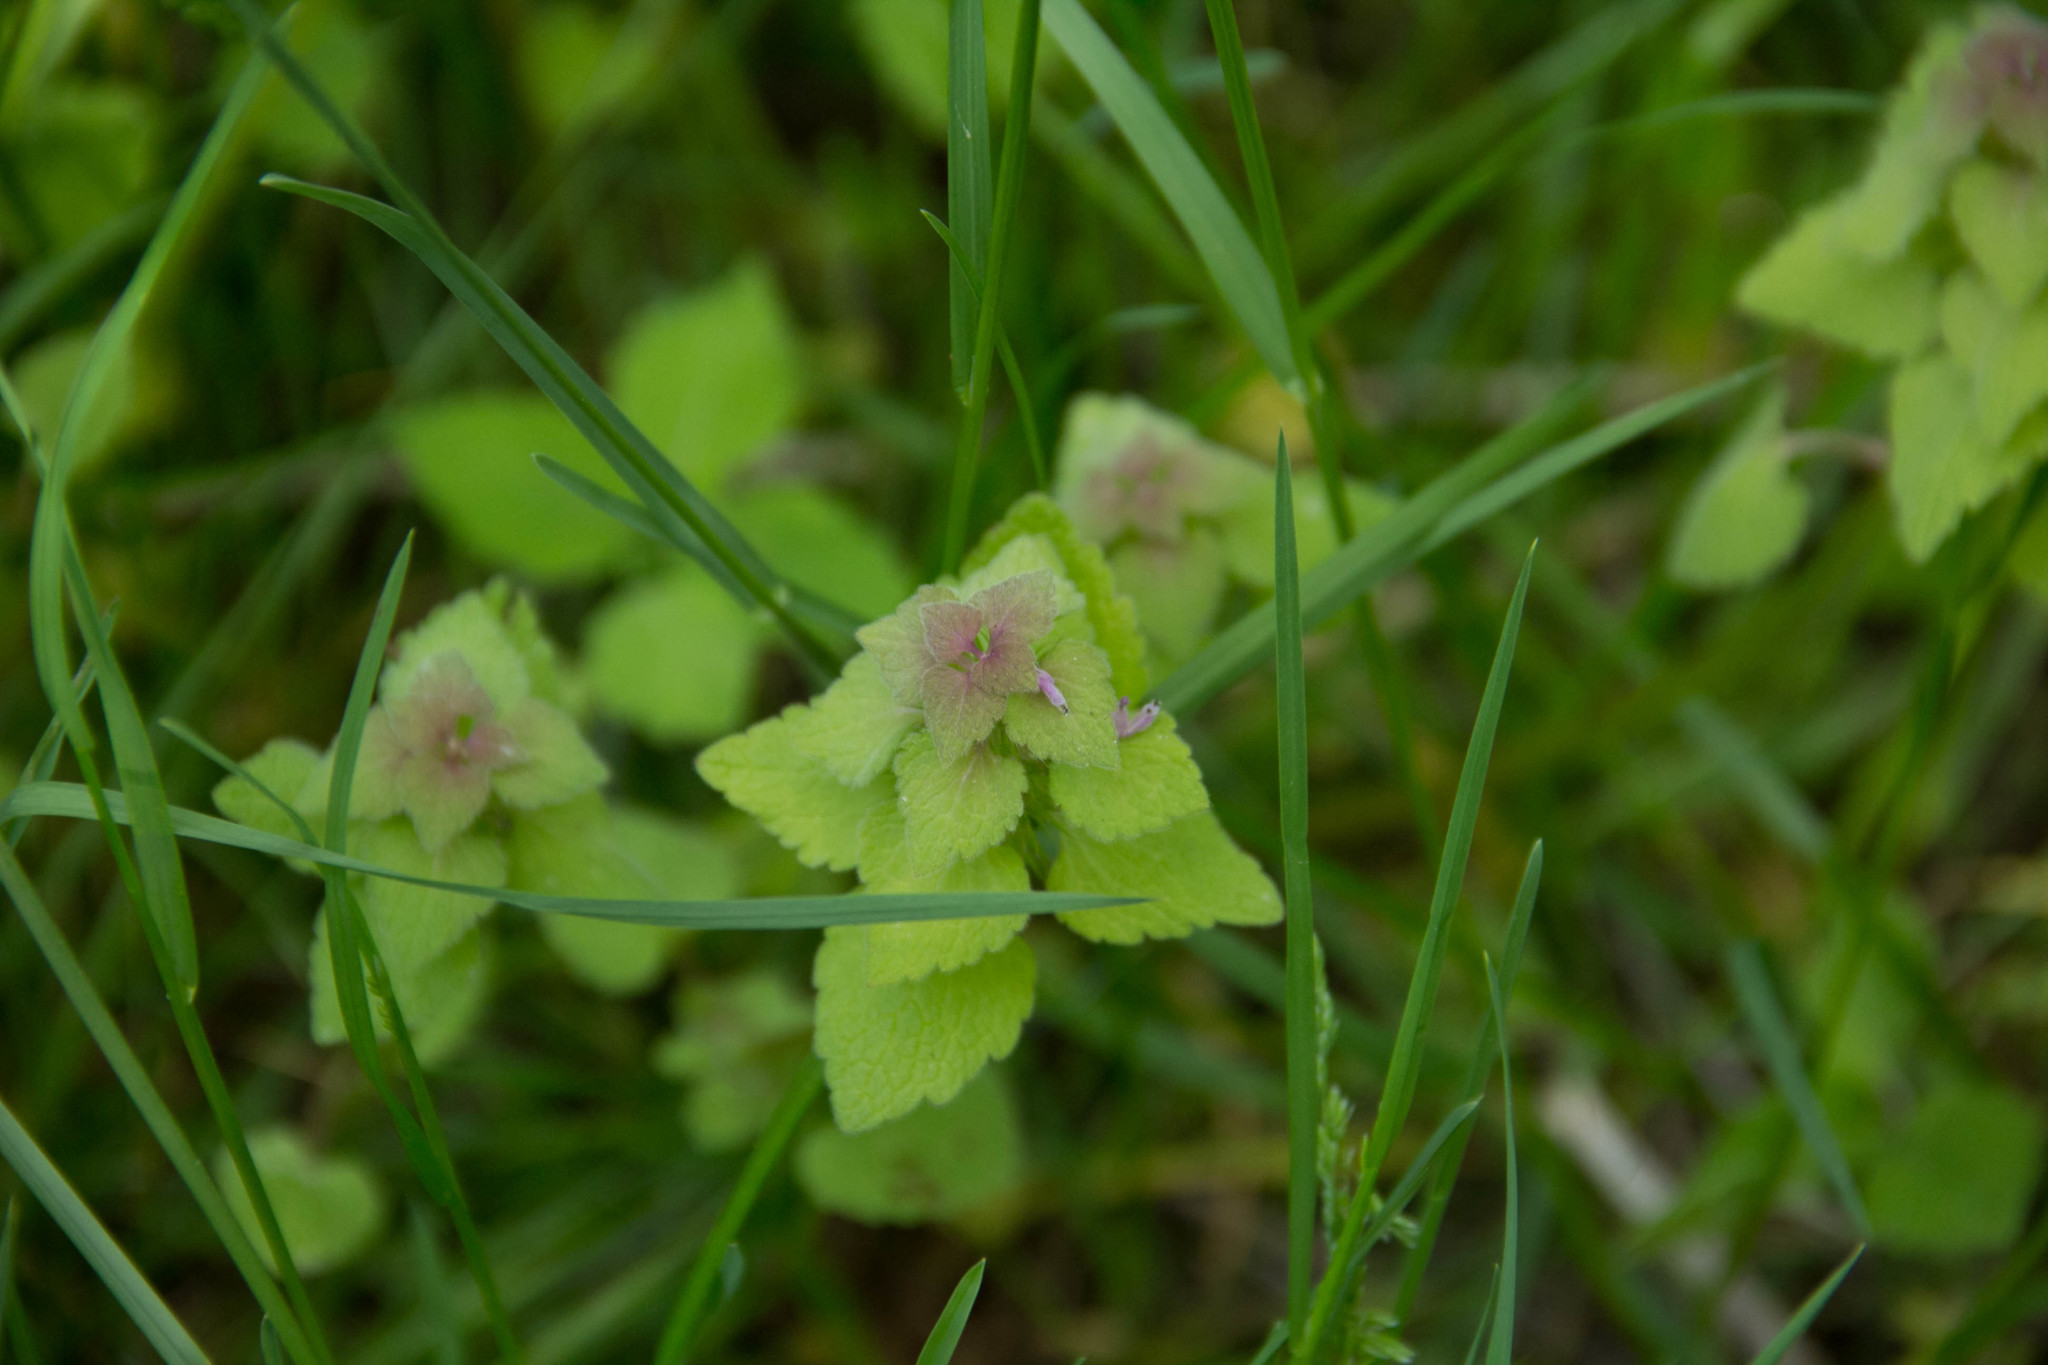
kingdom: Plantae
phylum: Tracheophyta
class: Magnoliopsida
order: Lamiales
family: Lamiaceae
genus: Lamium
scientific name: Lamium purpureum
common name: Red dead-nettle
